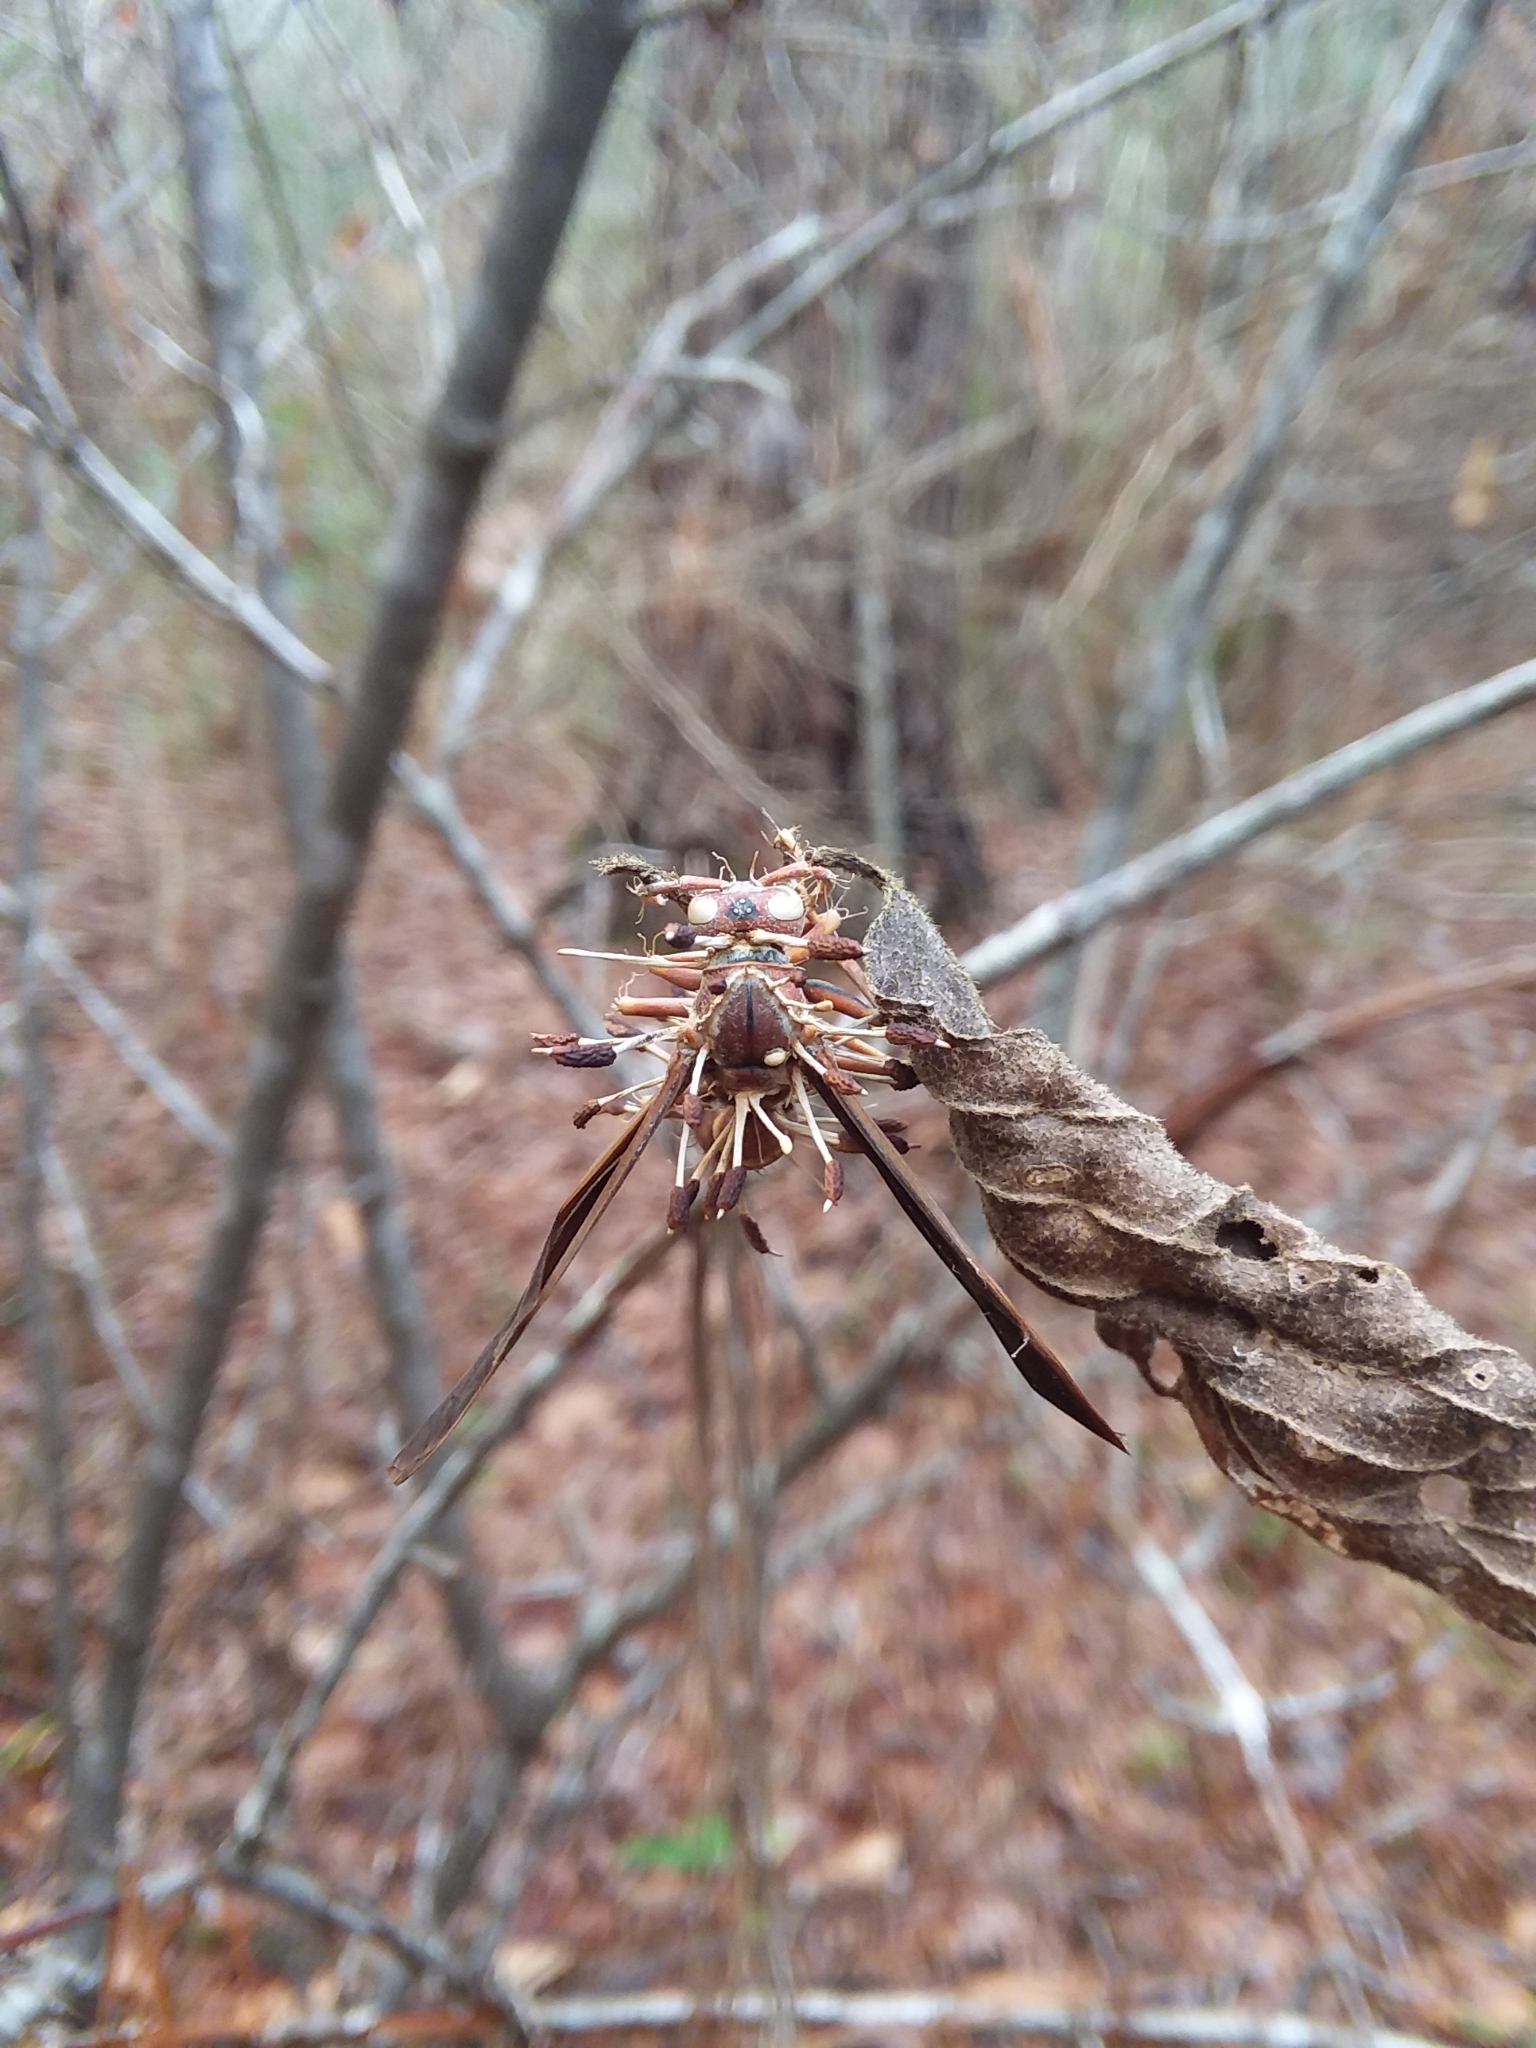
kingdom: Fungi
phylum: Ascomycota
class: Sordariomycetes
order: Hypocreales
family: Ophiocordycipitaceae
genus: Ophiocordyceps
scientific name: Ophiocordyceps humbertii
